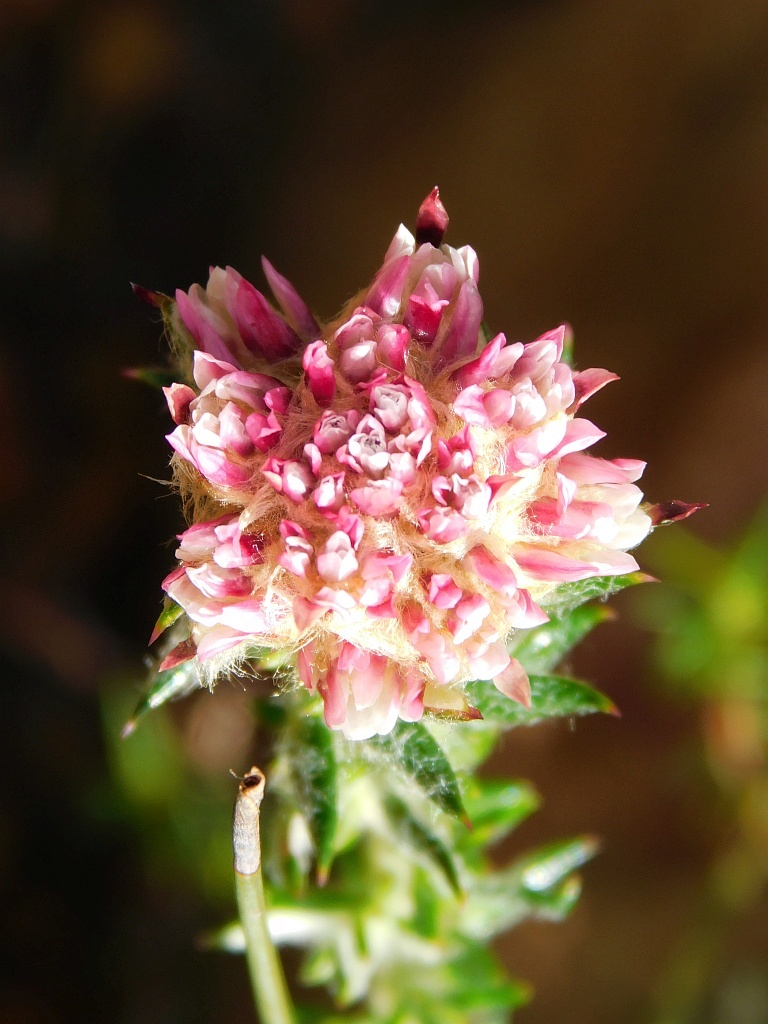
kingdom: Plantae
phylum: Tracheophyta
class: Magnoliopsida
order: Asterales
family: Asteraceae
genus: Metalasia
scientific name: Metalasia erubescens
